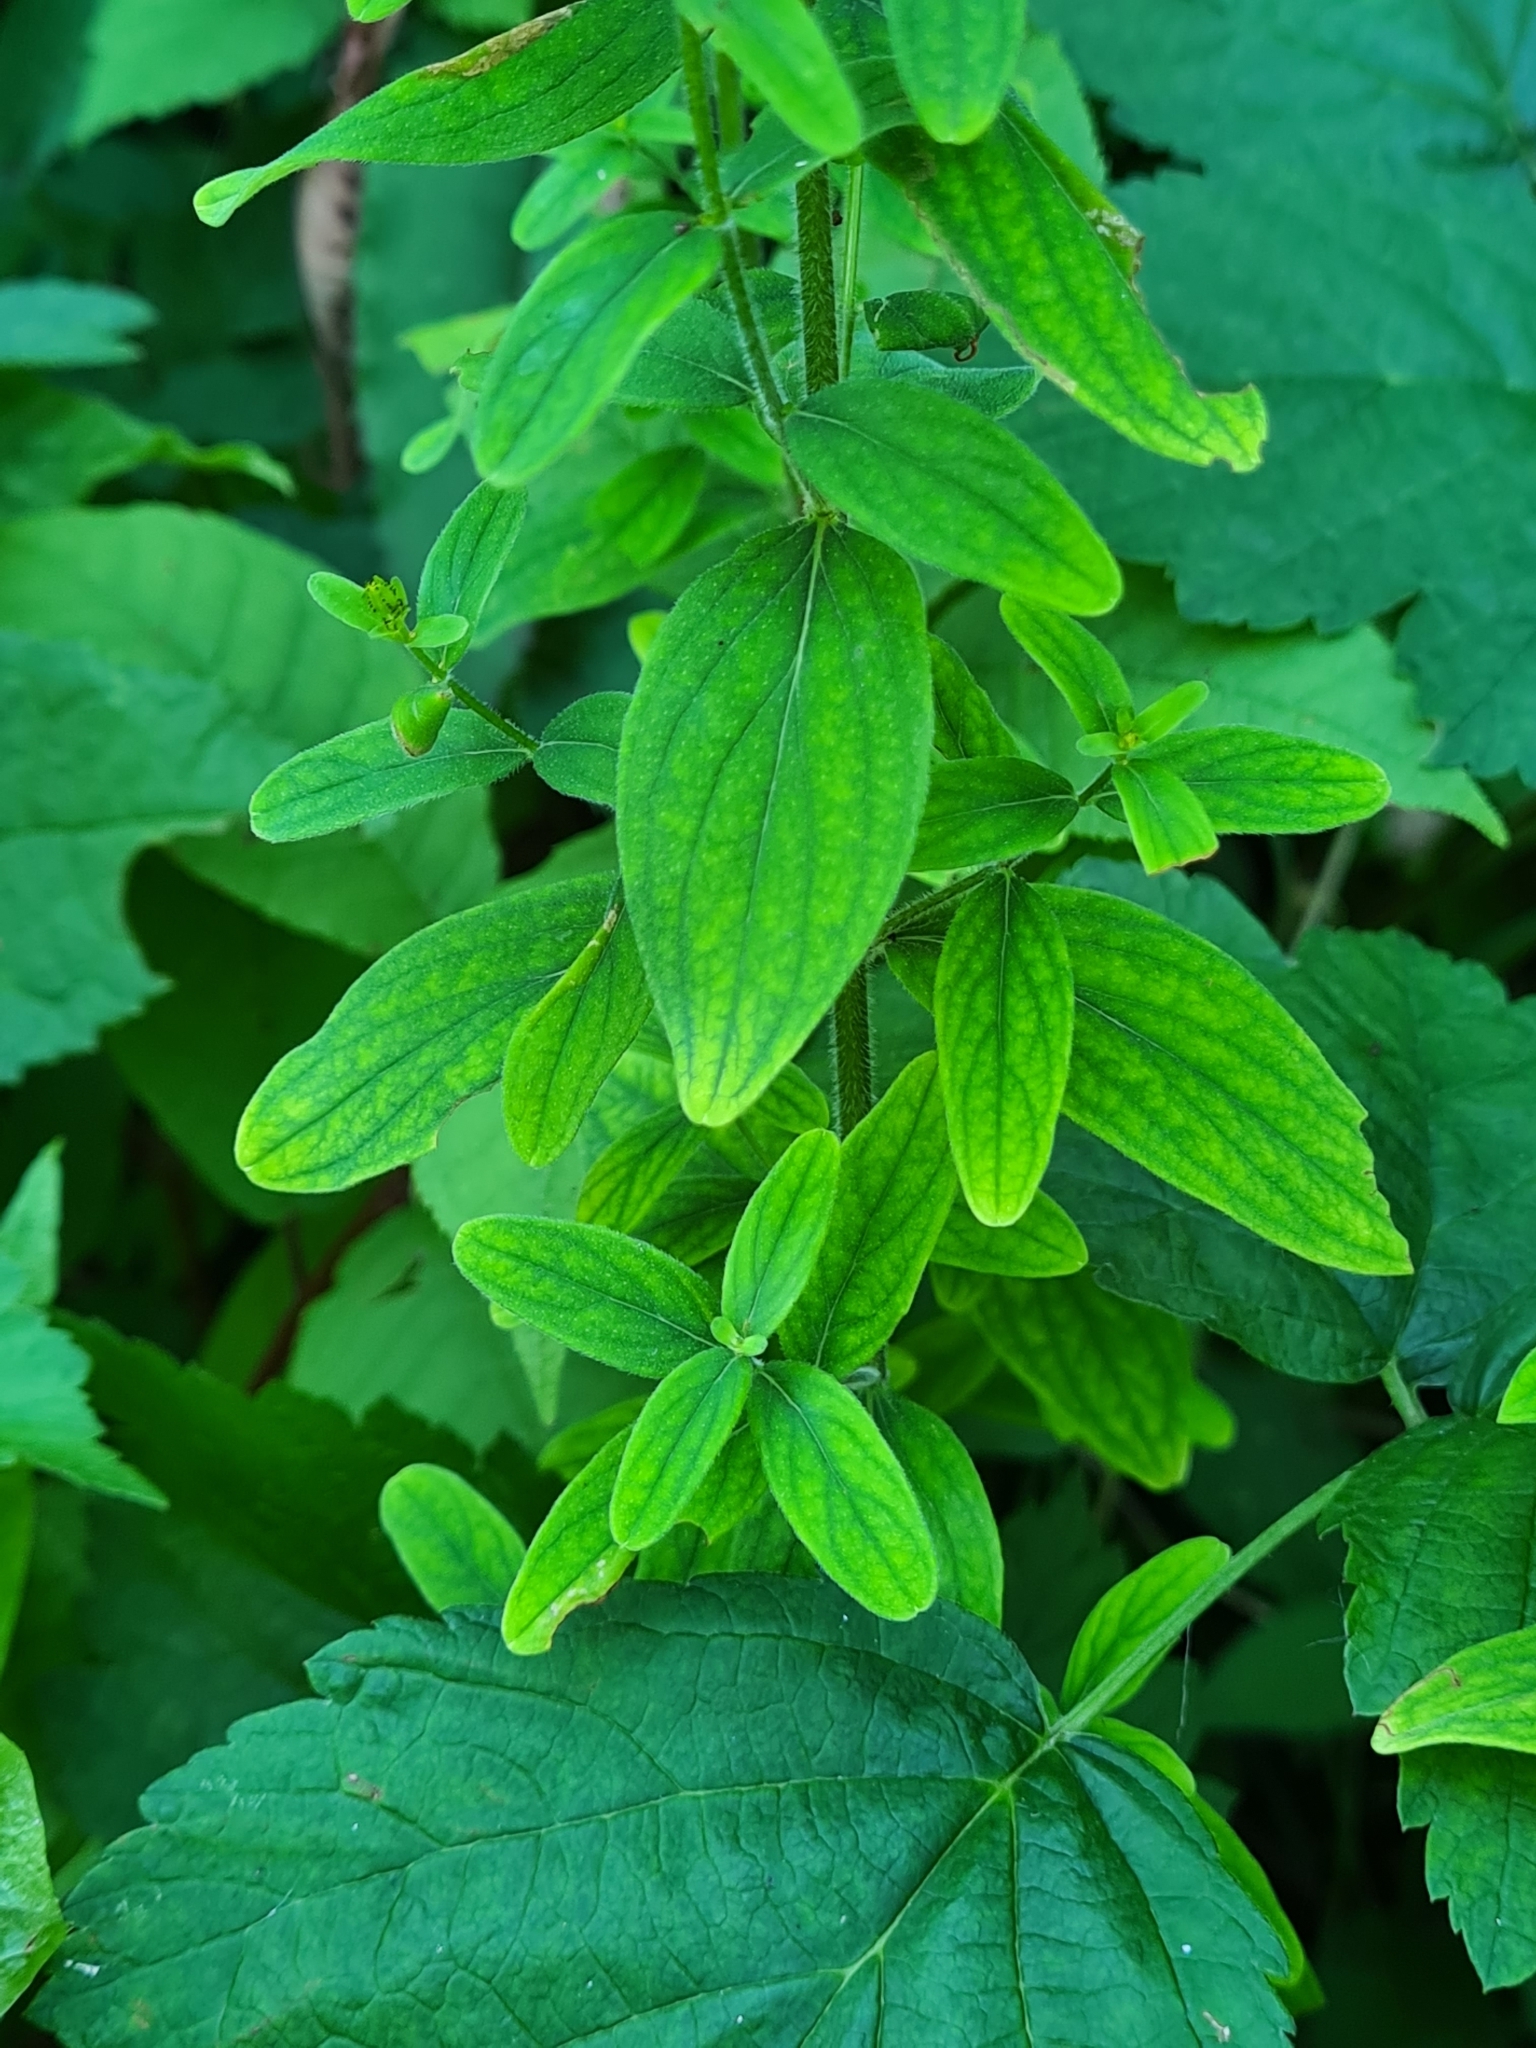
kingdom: Plantae
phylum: Tracheophyta
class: Magnoliopsida
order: Malpighiales
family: Hypericaceae
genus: Hypericum
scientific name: Hypericum hirsutum
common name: Hairy st. john's-wort
